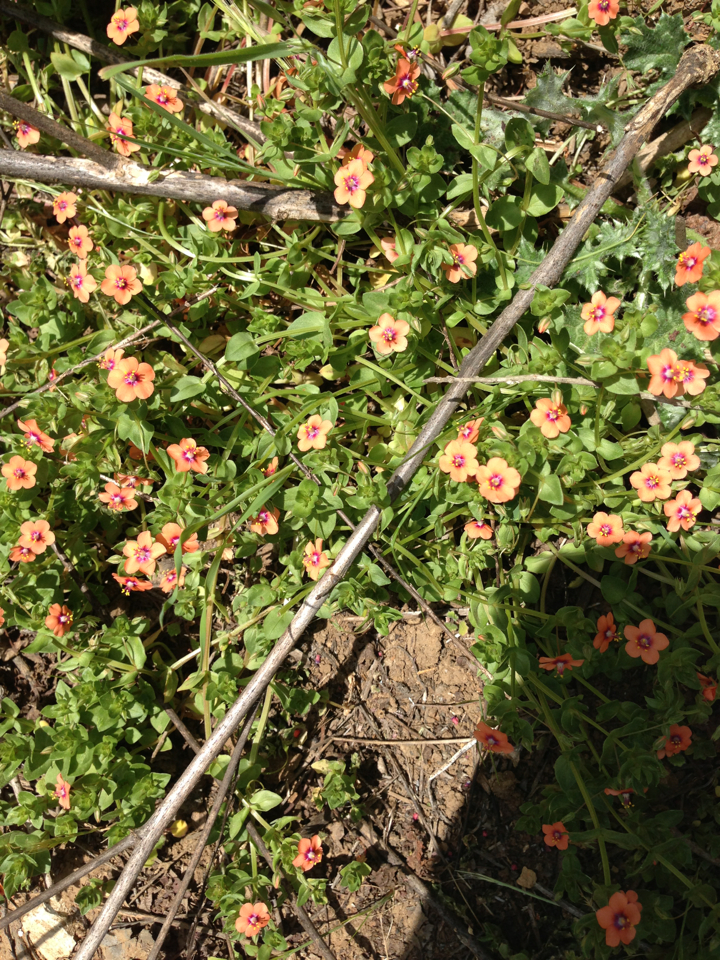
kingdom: Plantae
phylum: Tracheophyta
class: Magnoliopsida
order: Ericales
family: Primulaceae
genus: Lysimachia
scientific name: Lysimachia arvensis
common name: Scarlet pimpernel
